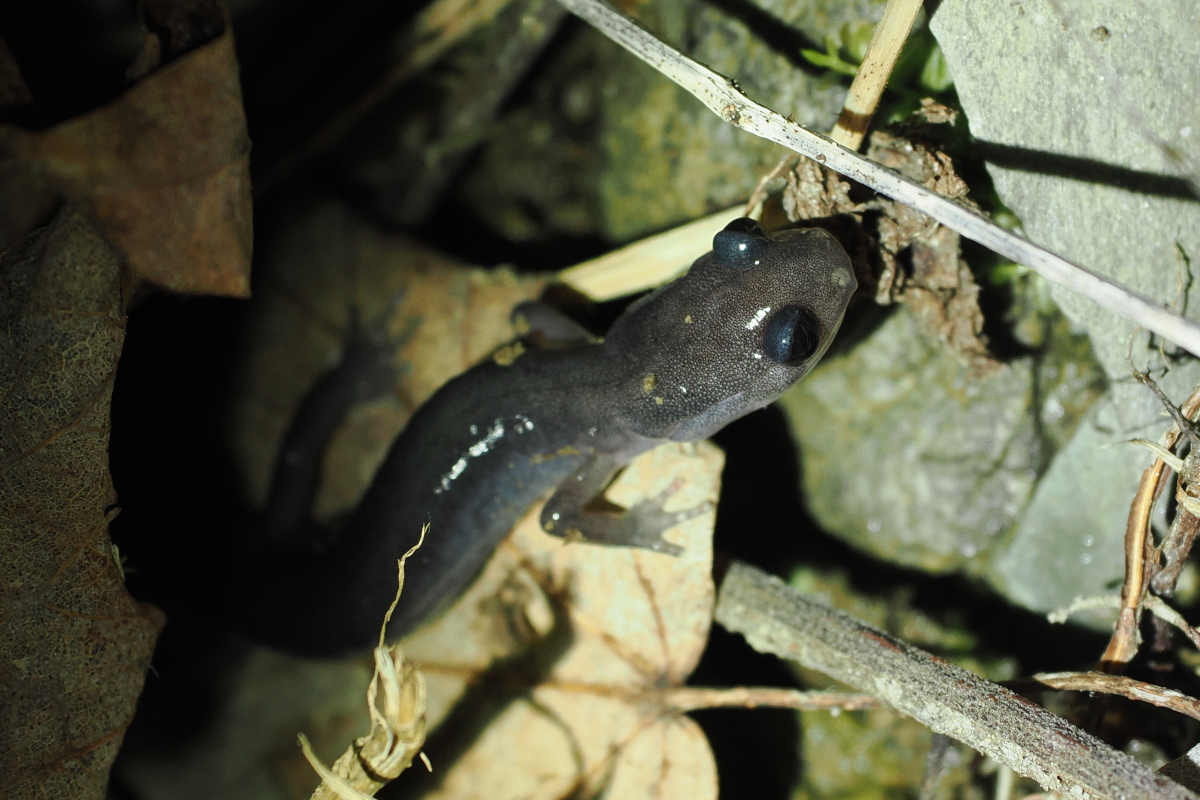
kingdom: Animalia
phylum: Chordata
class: Amphibia
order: Caudata
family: Plethodontidae
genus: Plethodon
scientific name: Plethodon montanus
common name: Northern gray-cheeked salamander
